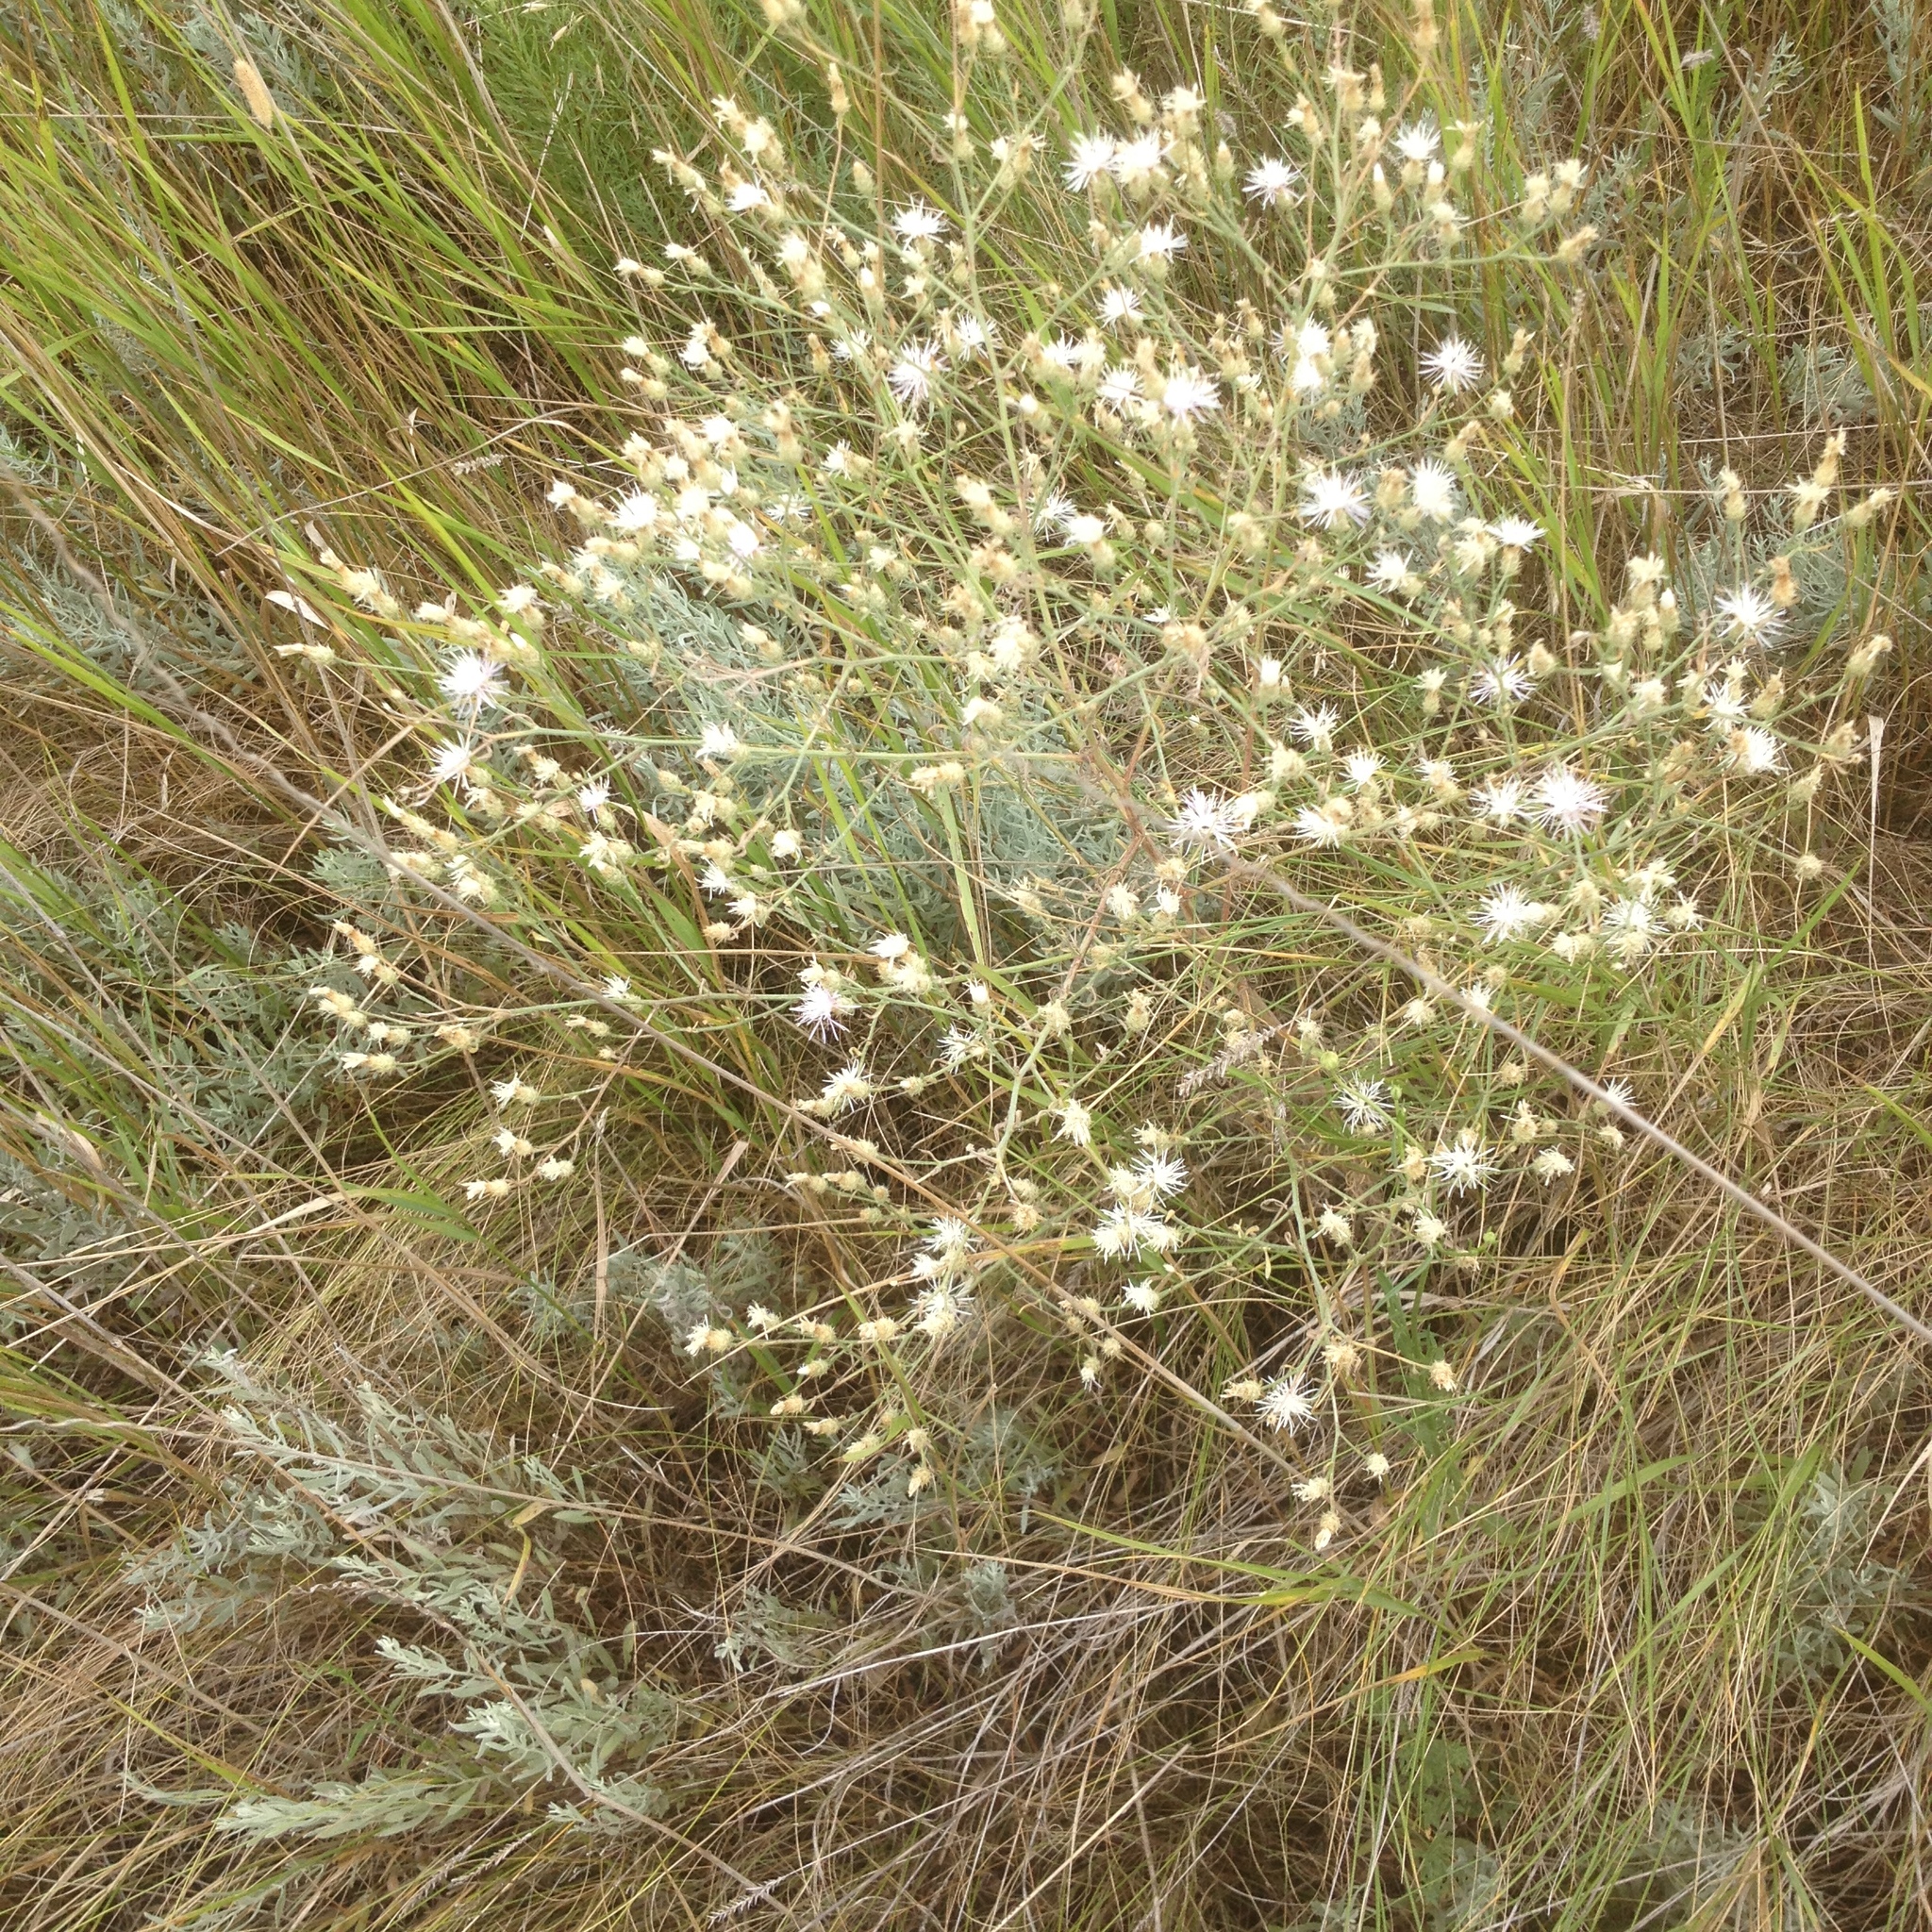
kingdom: Plantae
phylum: Tracheophyta
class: Magnoliopsida
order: Asterales
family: Asteraceae
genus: Centaurea
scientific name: Centaurea diffusa
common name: Diffuse knapweed
